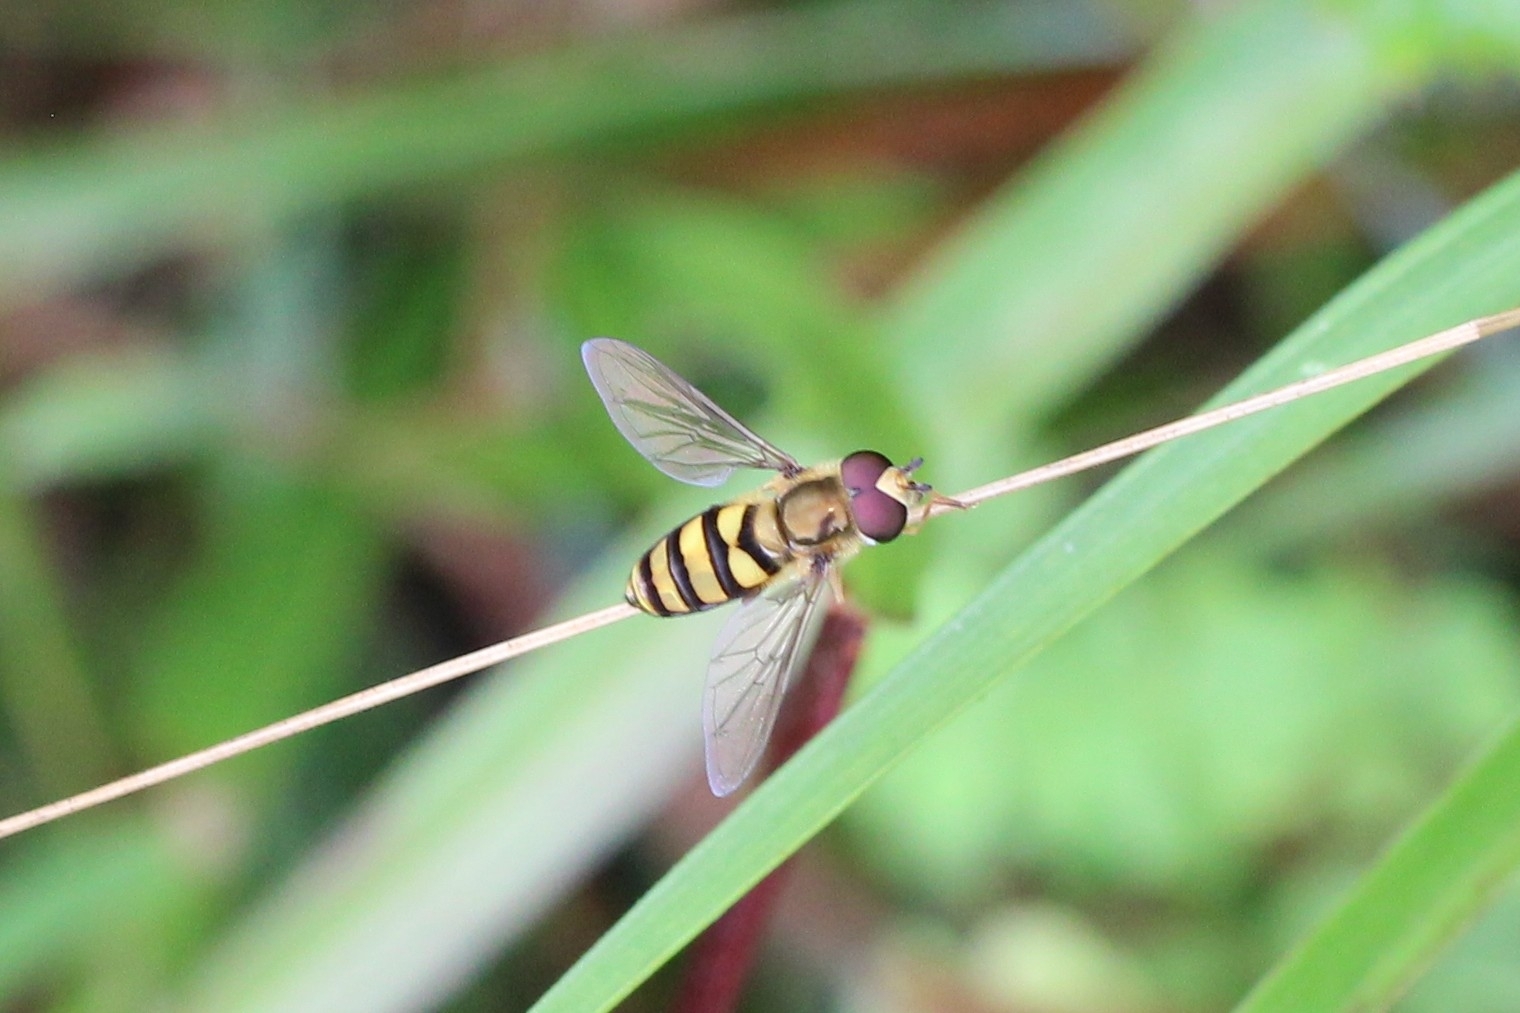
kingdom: Animalia
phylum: Arthropoda
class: Insecta
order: Diptera
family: Syrphidae
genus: Eupeodes
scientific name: Eupeodes
